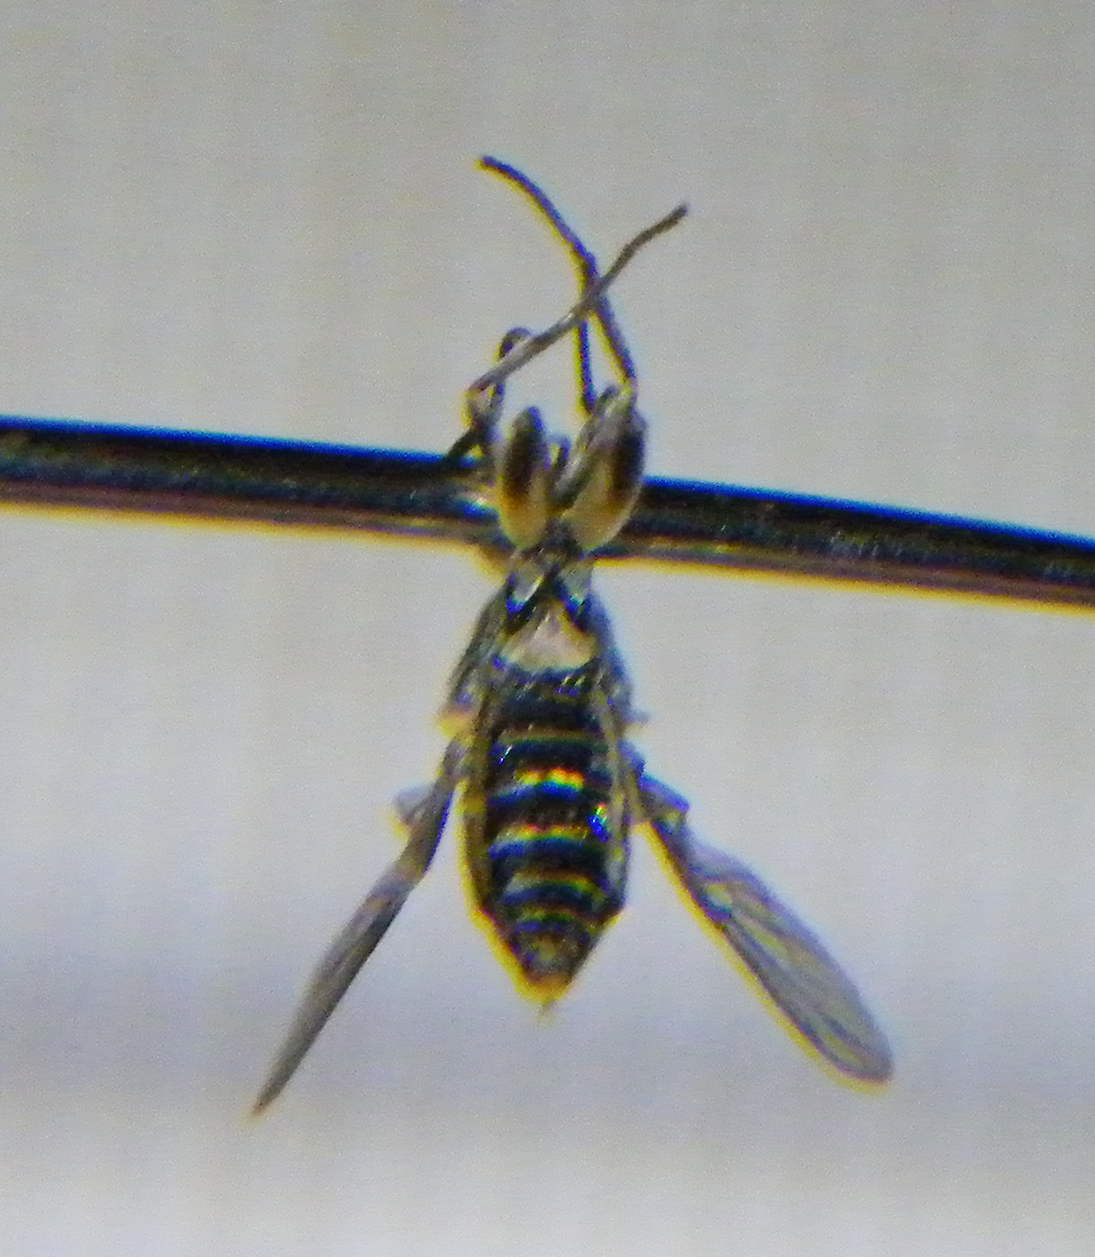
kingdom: Animalia
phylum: Arthropoda
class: Insecta
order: Diptera
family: Xylomyidae
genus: Solva
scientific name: Solva marginata
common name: Drab wood-soldierfly
